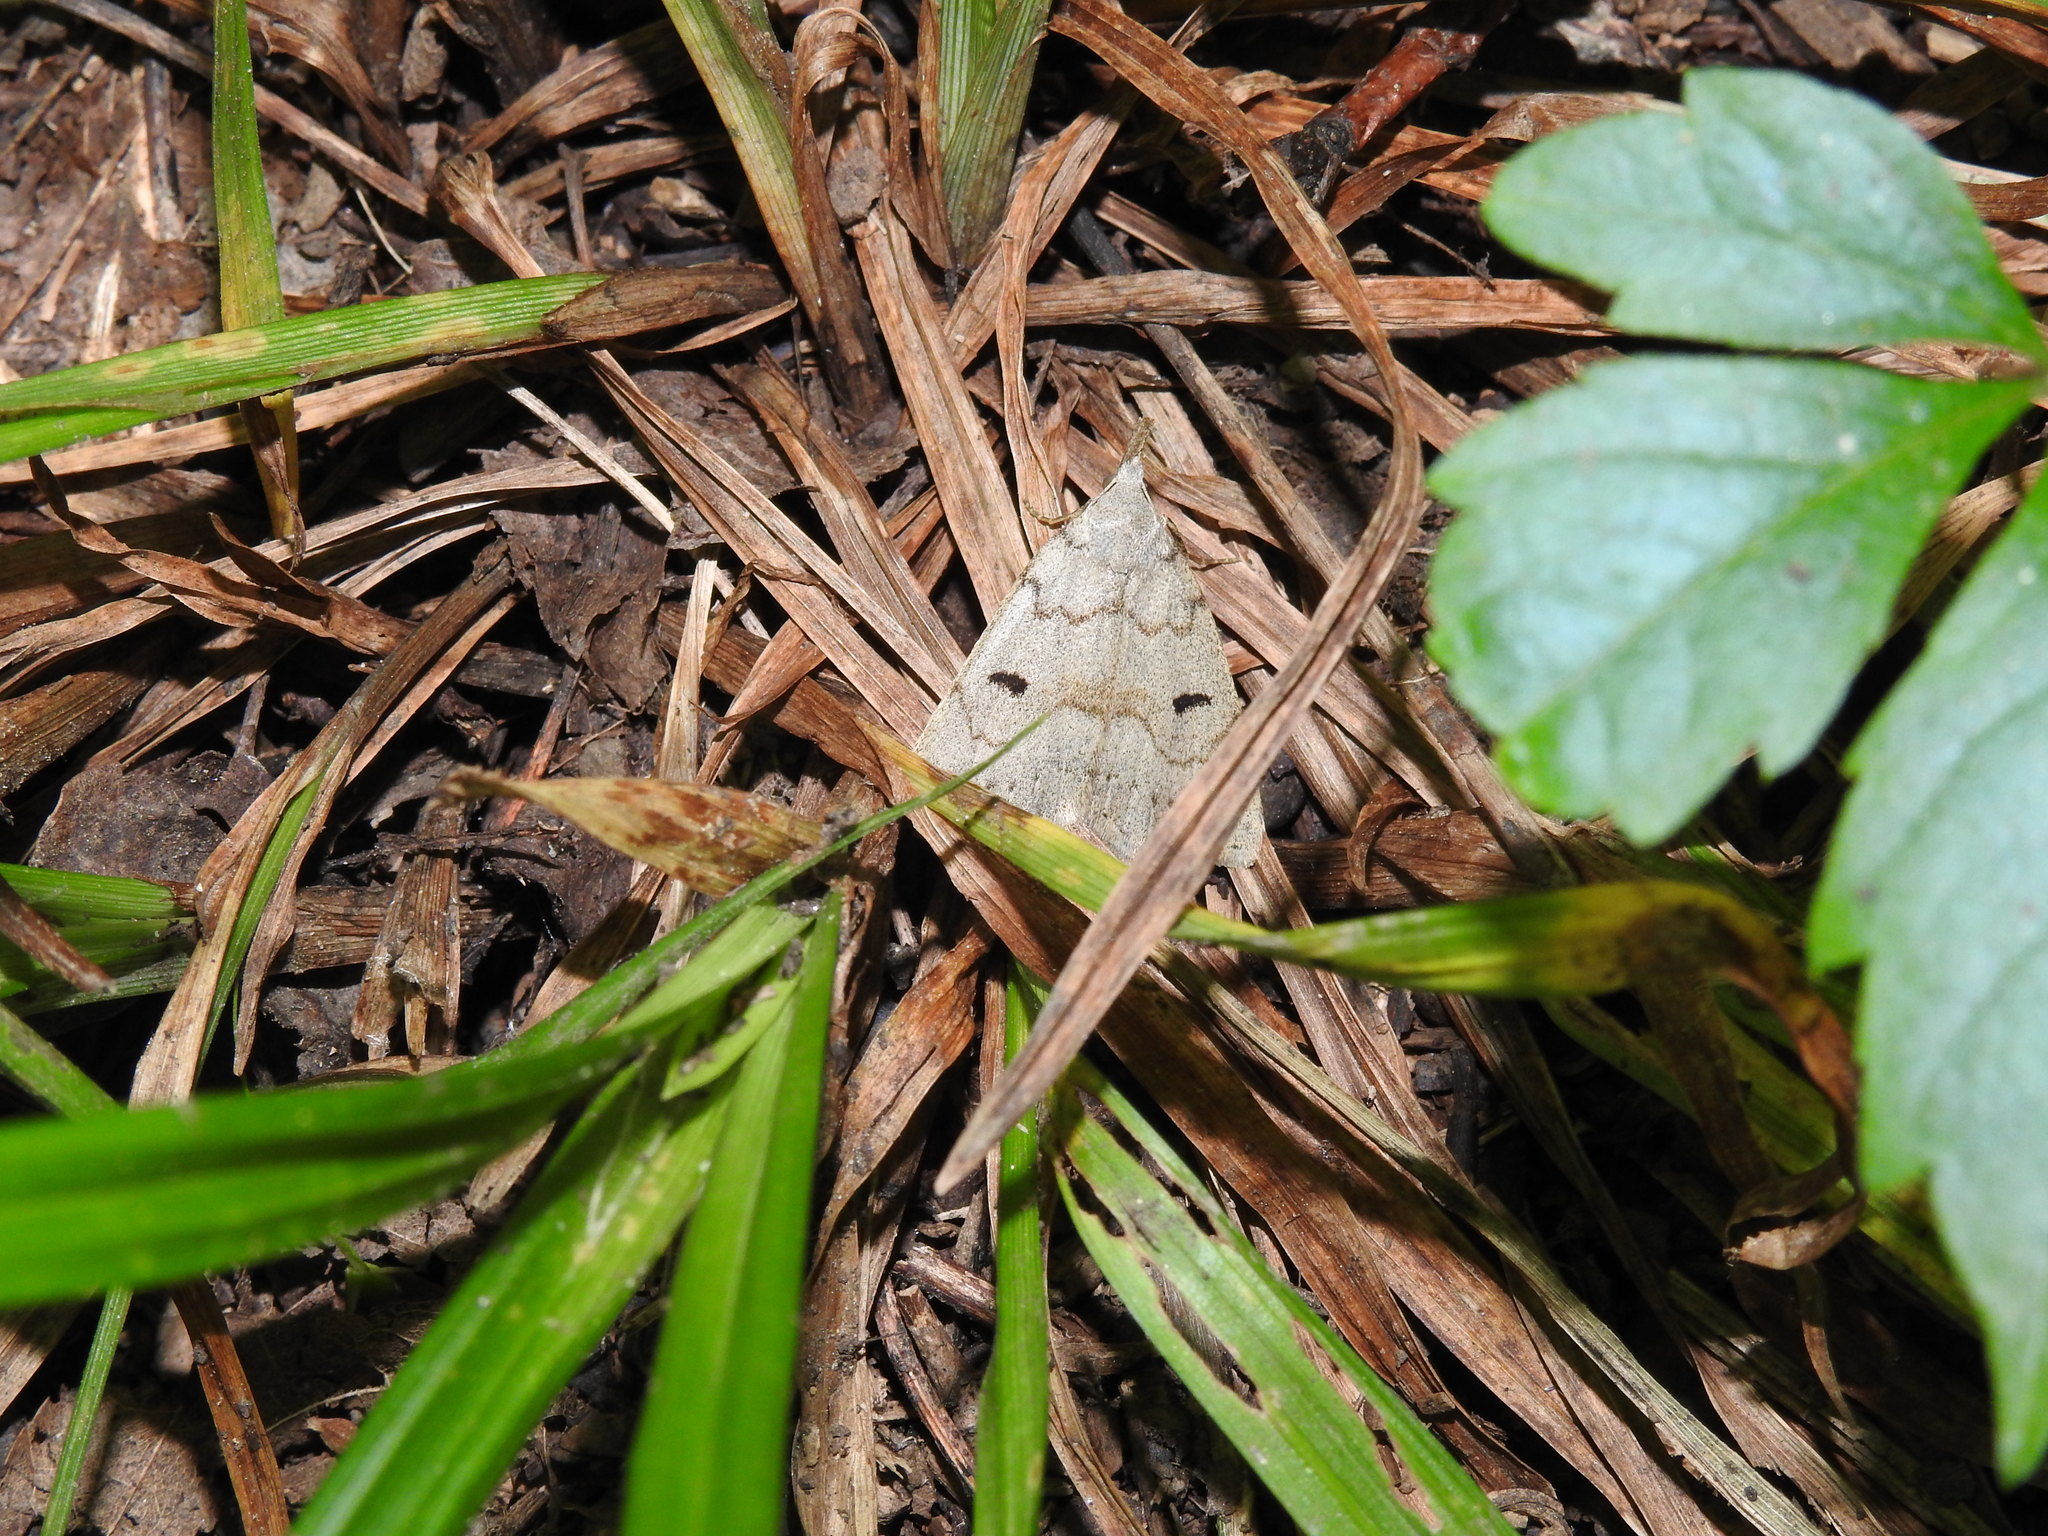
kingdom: Animalia
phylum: Arthropoda
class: Insecta
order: Lepidoptera
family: Erebidae
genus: Macrochilo
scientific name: Macrochilo morbidalis
